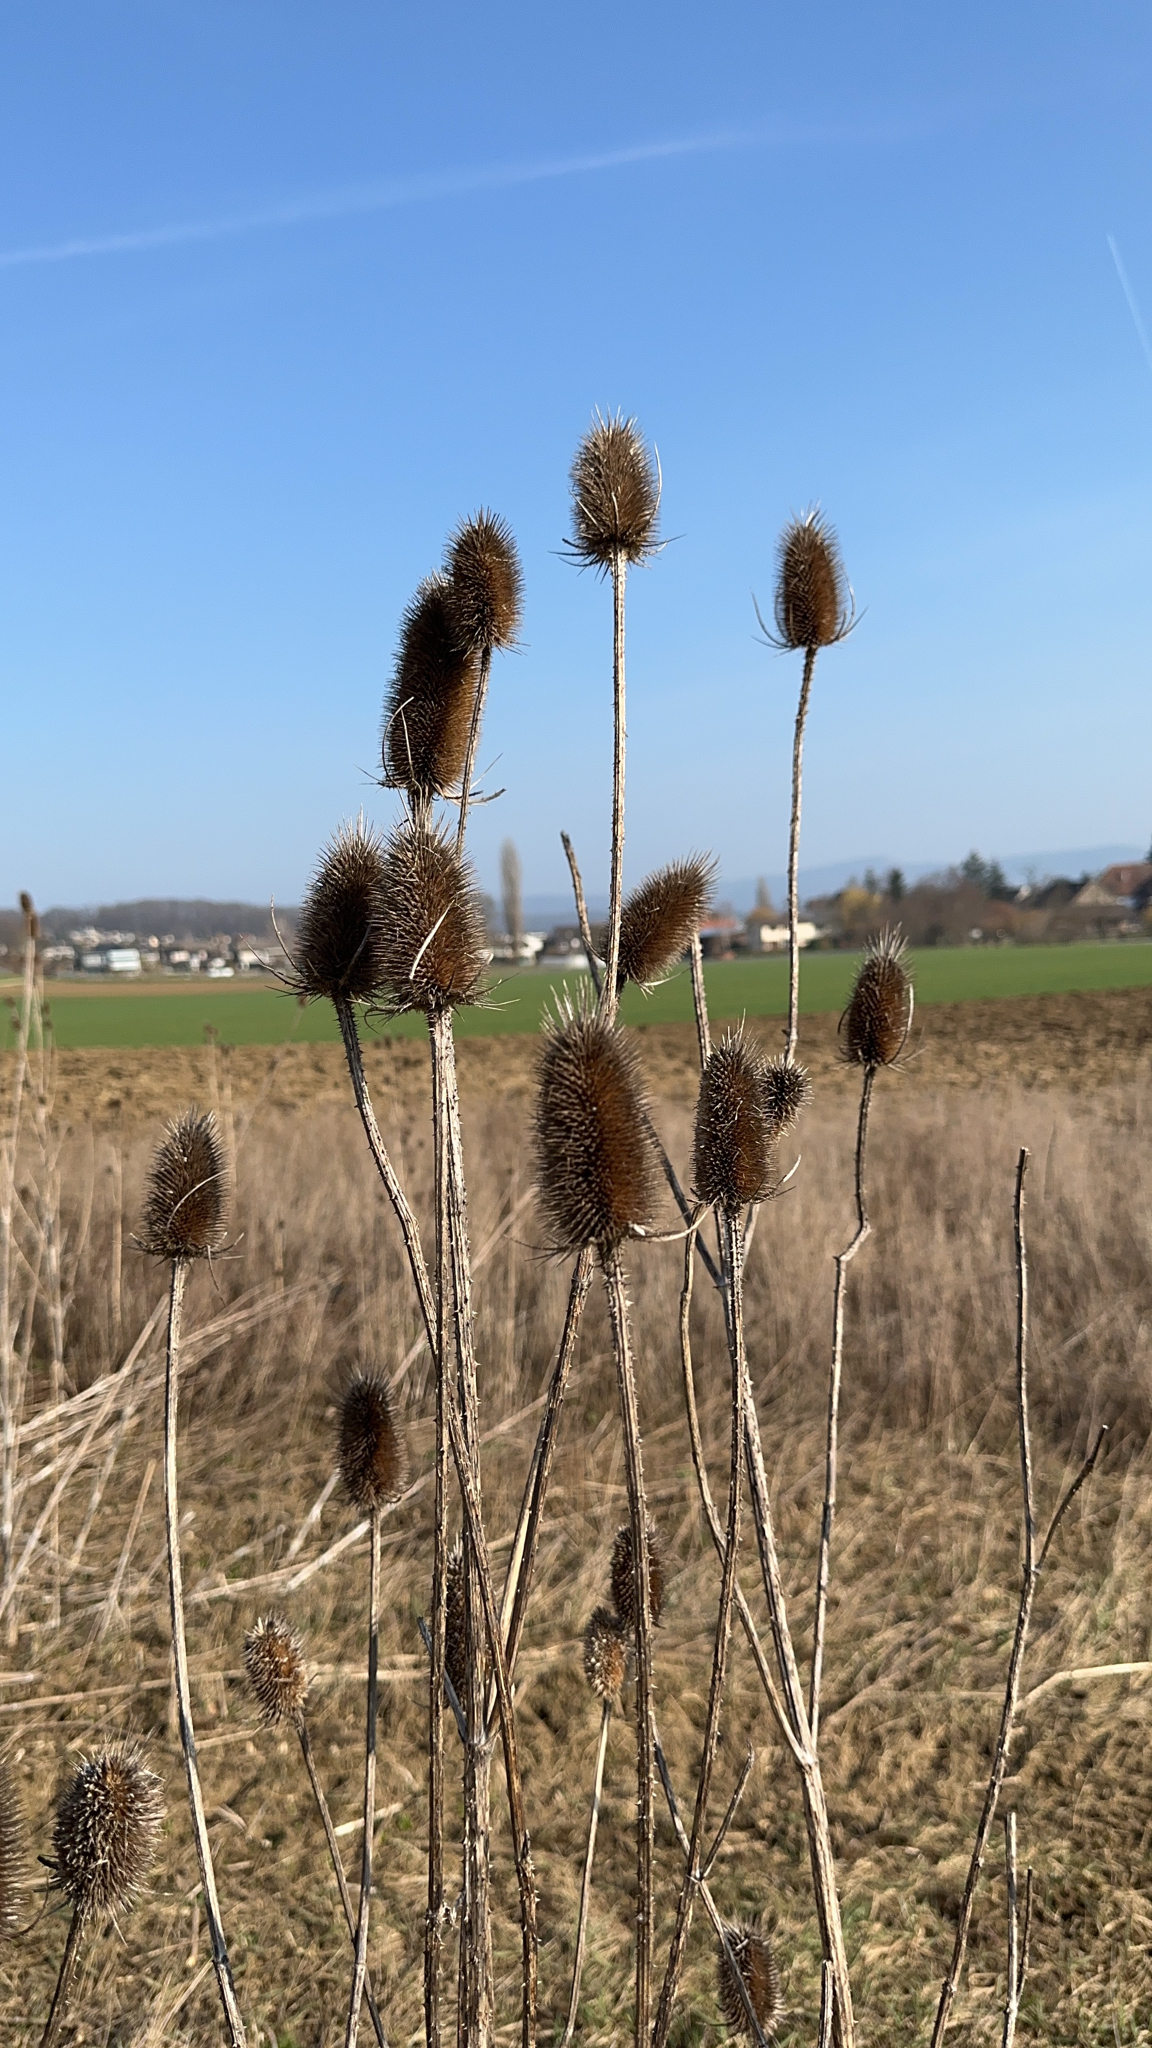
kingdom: Plantae
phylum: Tracheophyta
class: Magnoliopsida
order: Dipsacales
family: Caprifoliaceae
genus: Dipsacus
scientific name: Dipsacus fullonum
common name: Teasel
